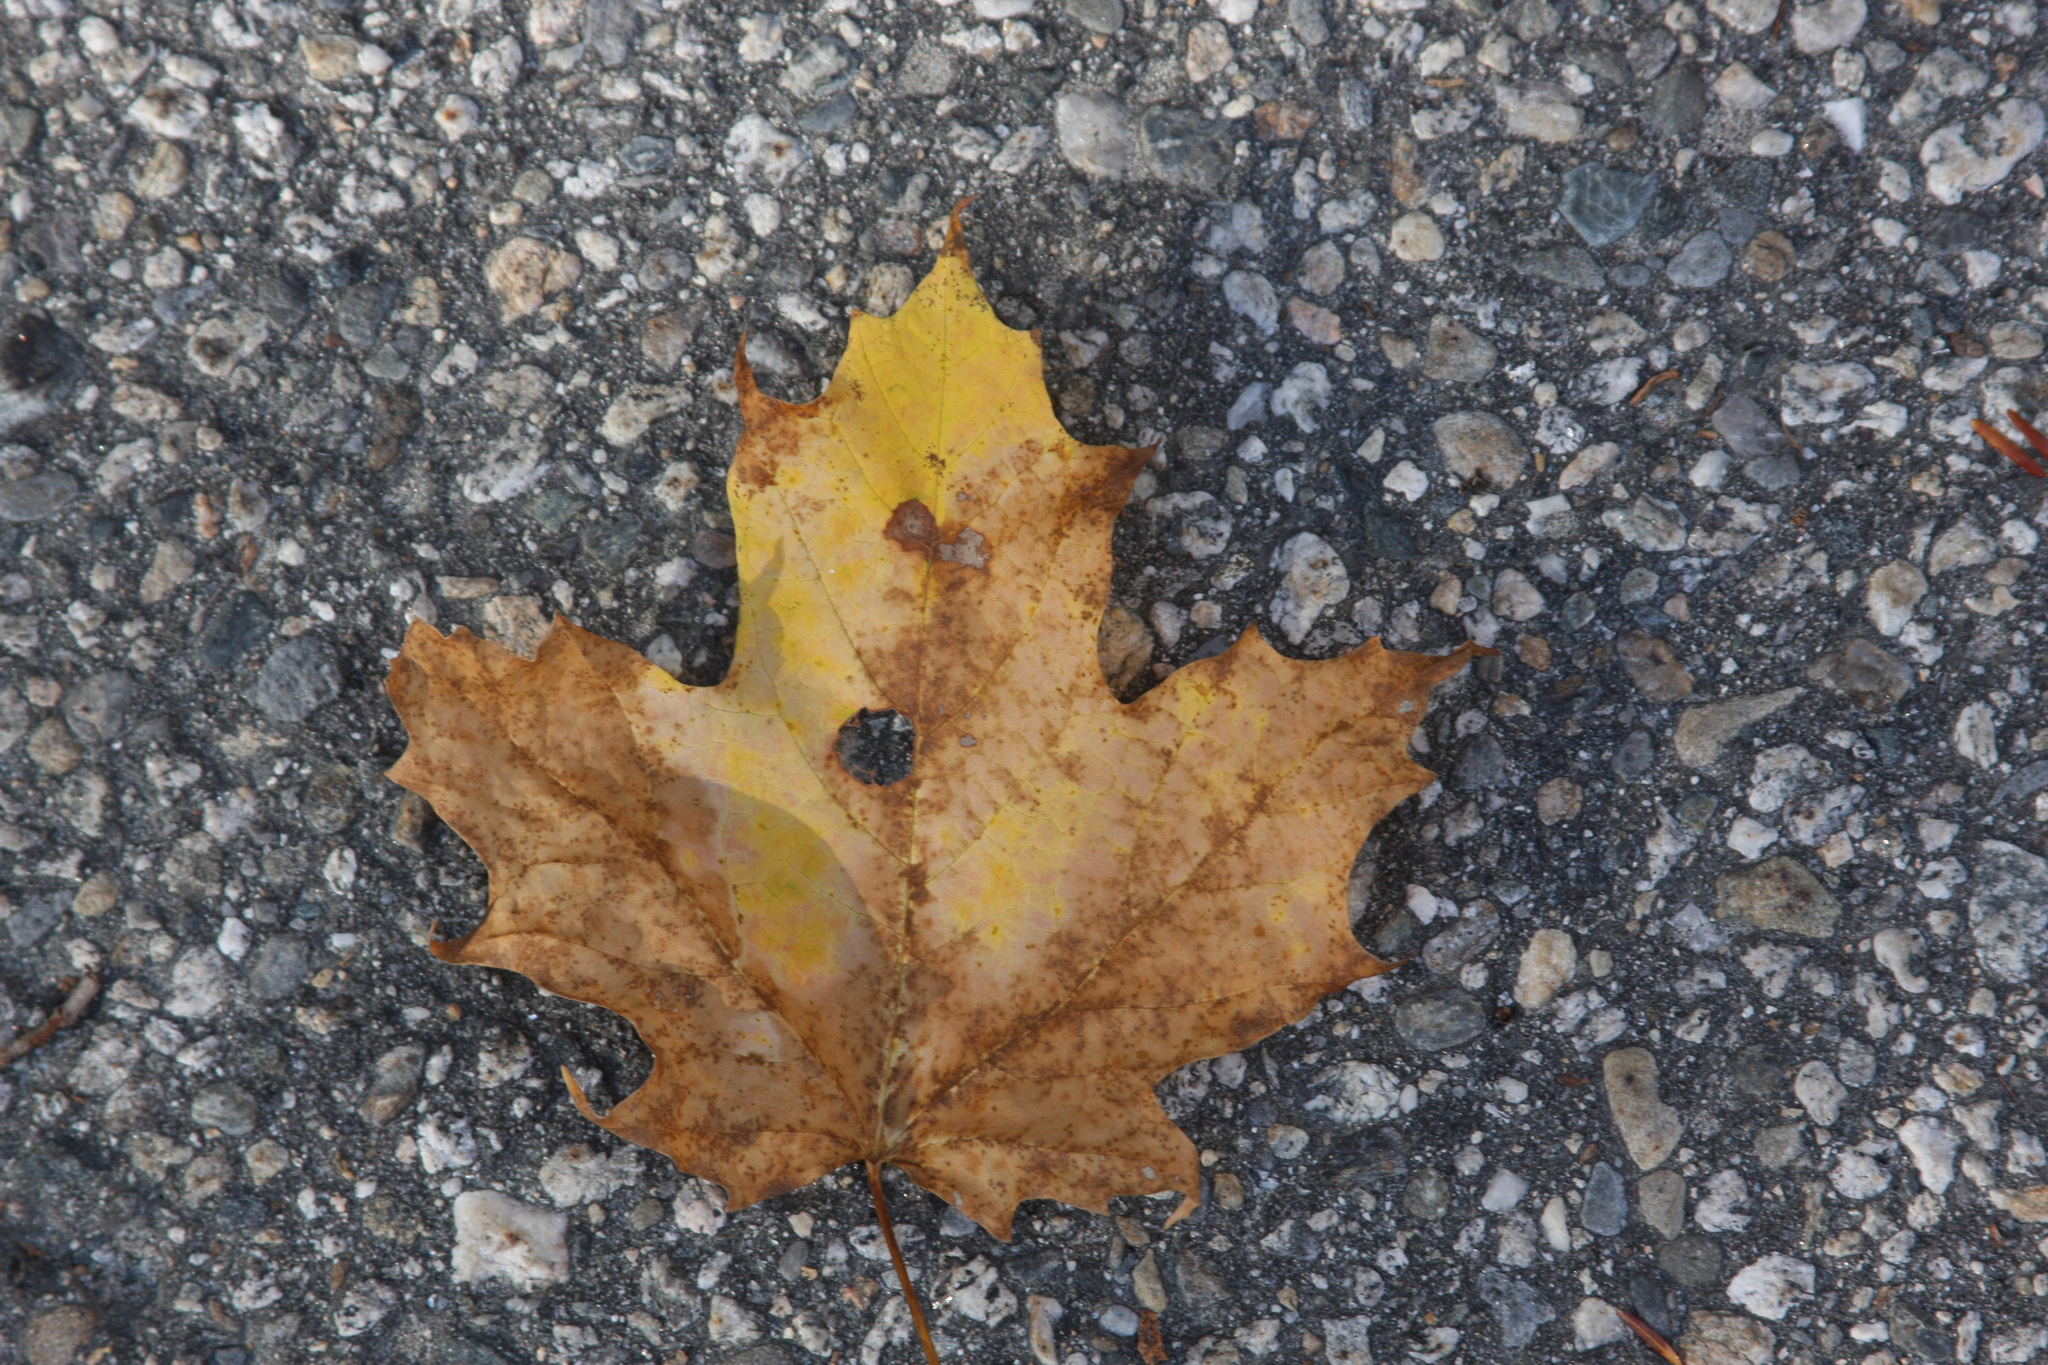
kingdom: Plantae
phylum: Tracheophyta
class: Magnoliopsida
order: Sapindales
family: Sapindaceae
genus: Acer
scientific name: Acer saccharum
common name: Sugar maple
